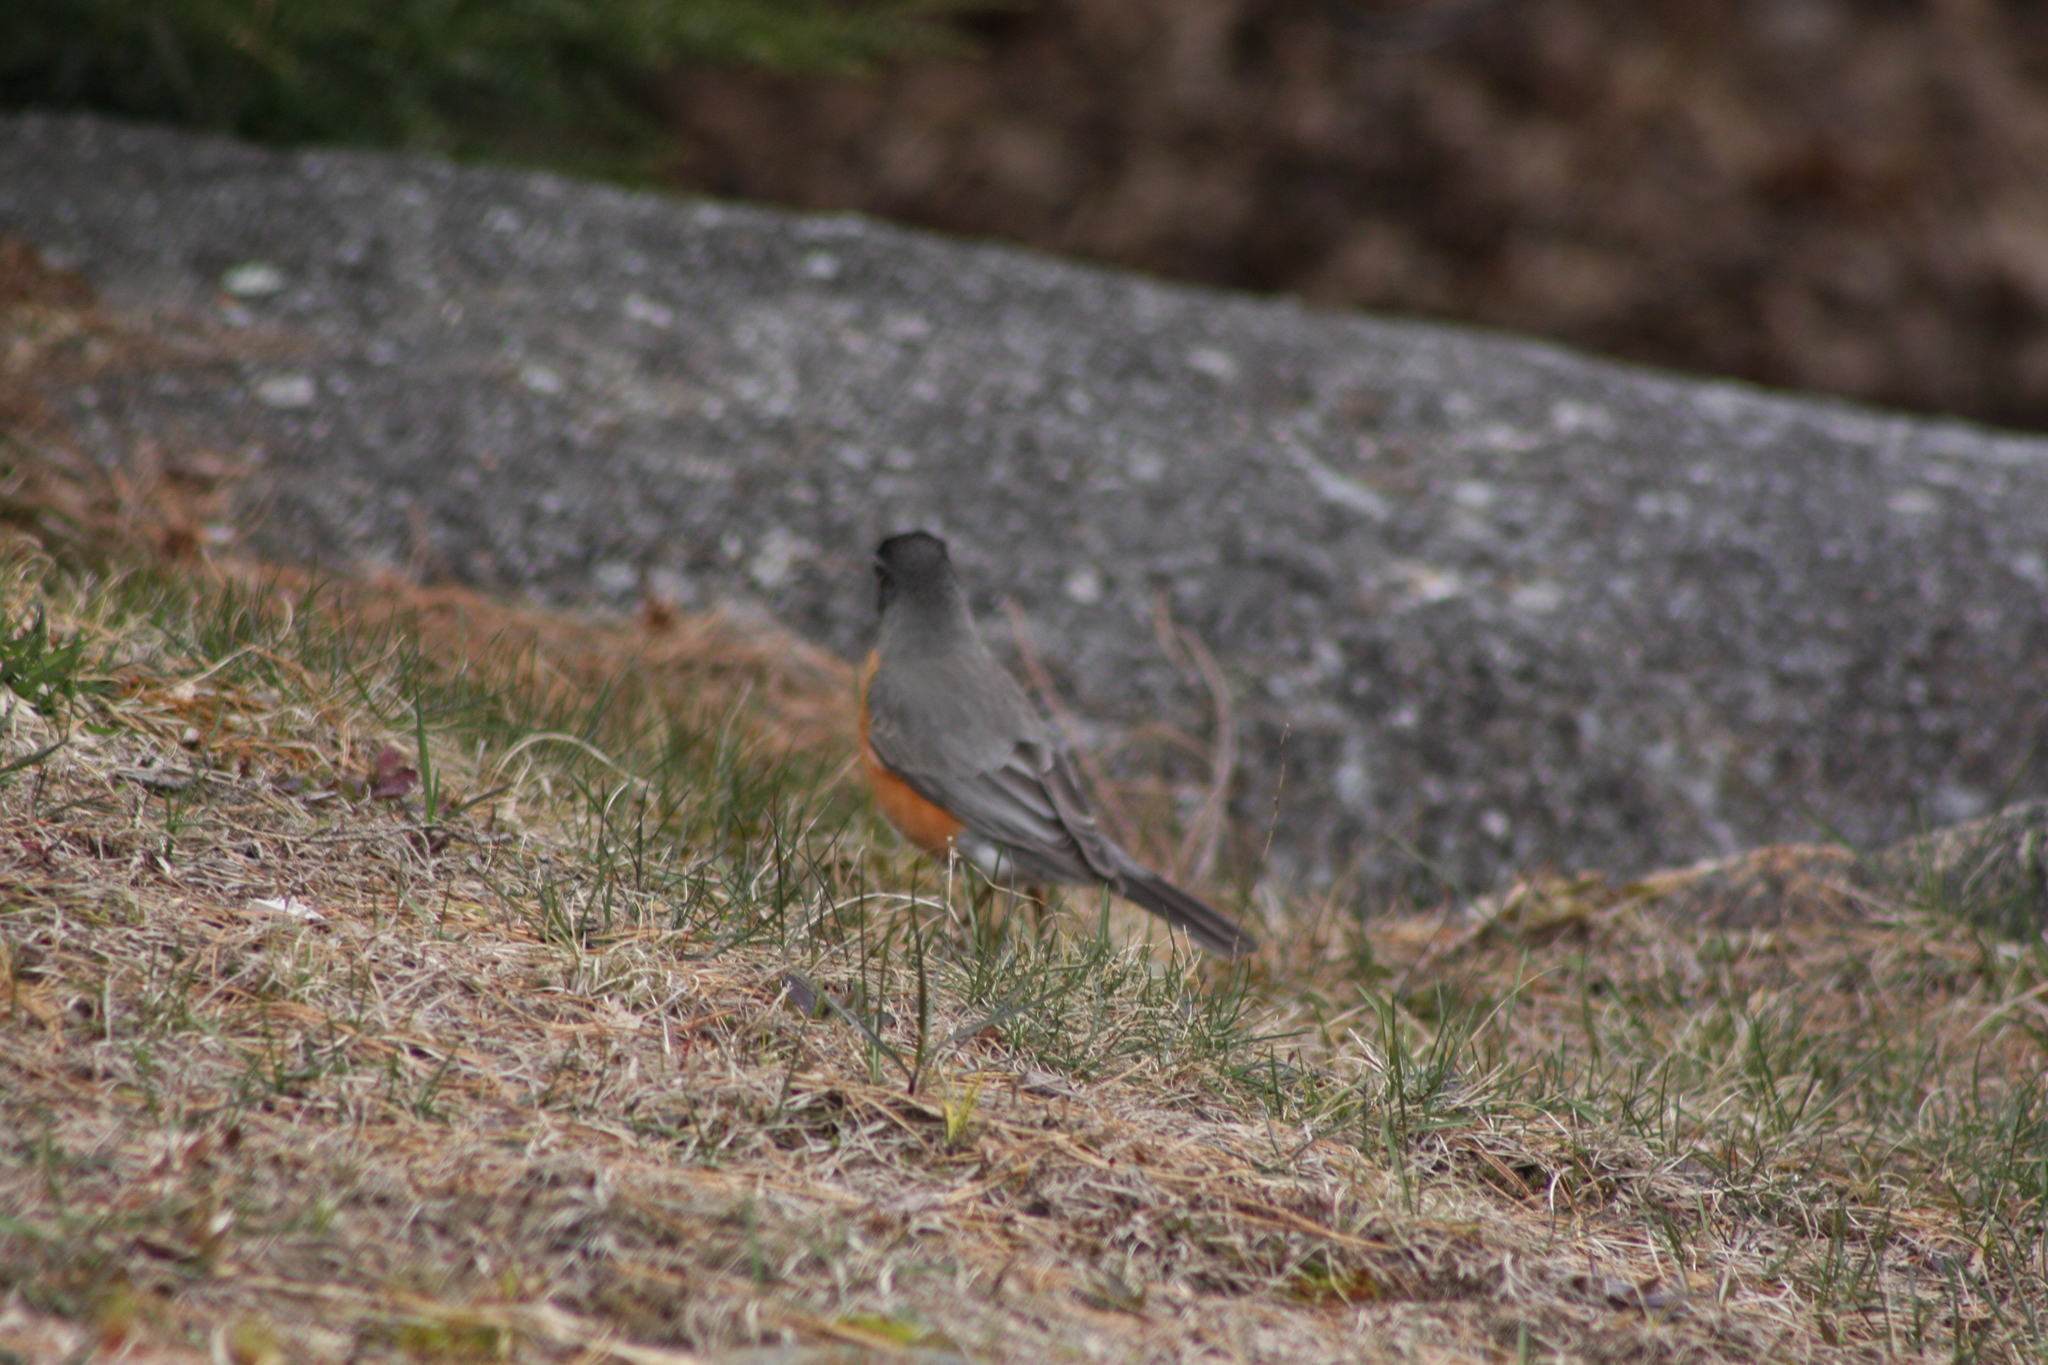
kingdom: Animalia
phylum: Chordata
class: Aves
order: Passeriformes
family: Turdidae
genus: Turdus
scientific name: Turdus migratorius
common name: American robin
